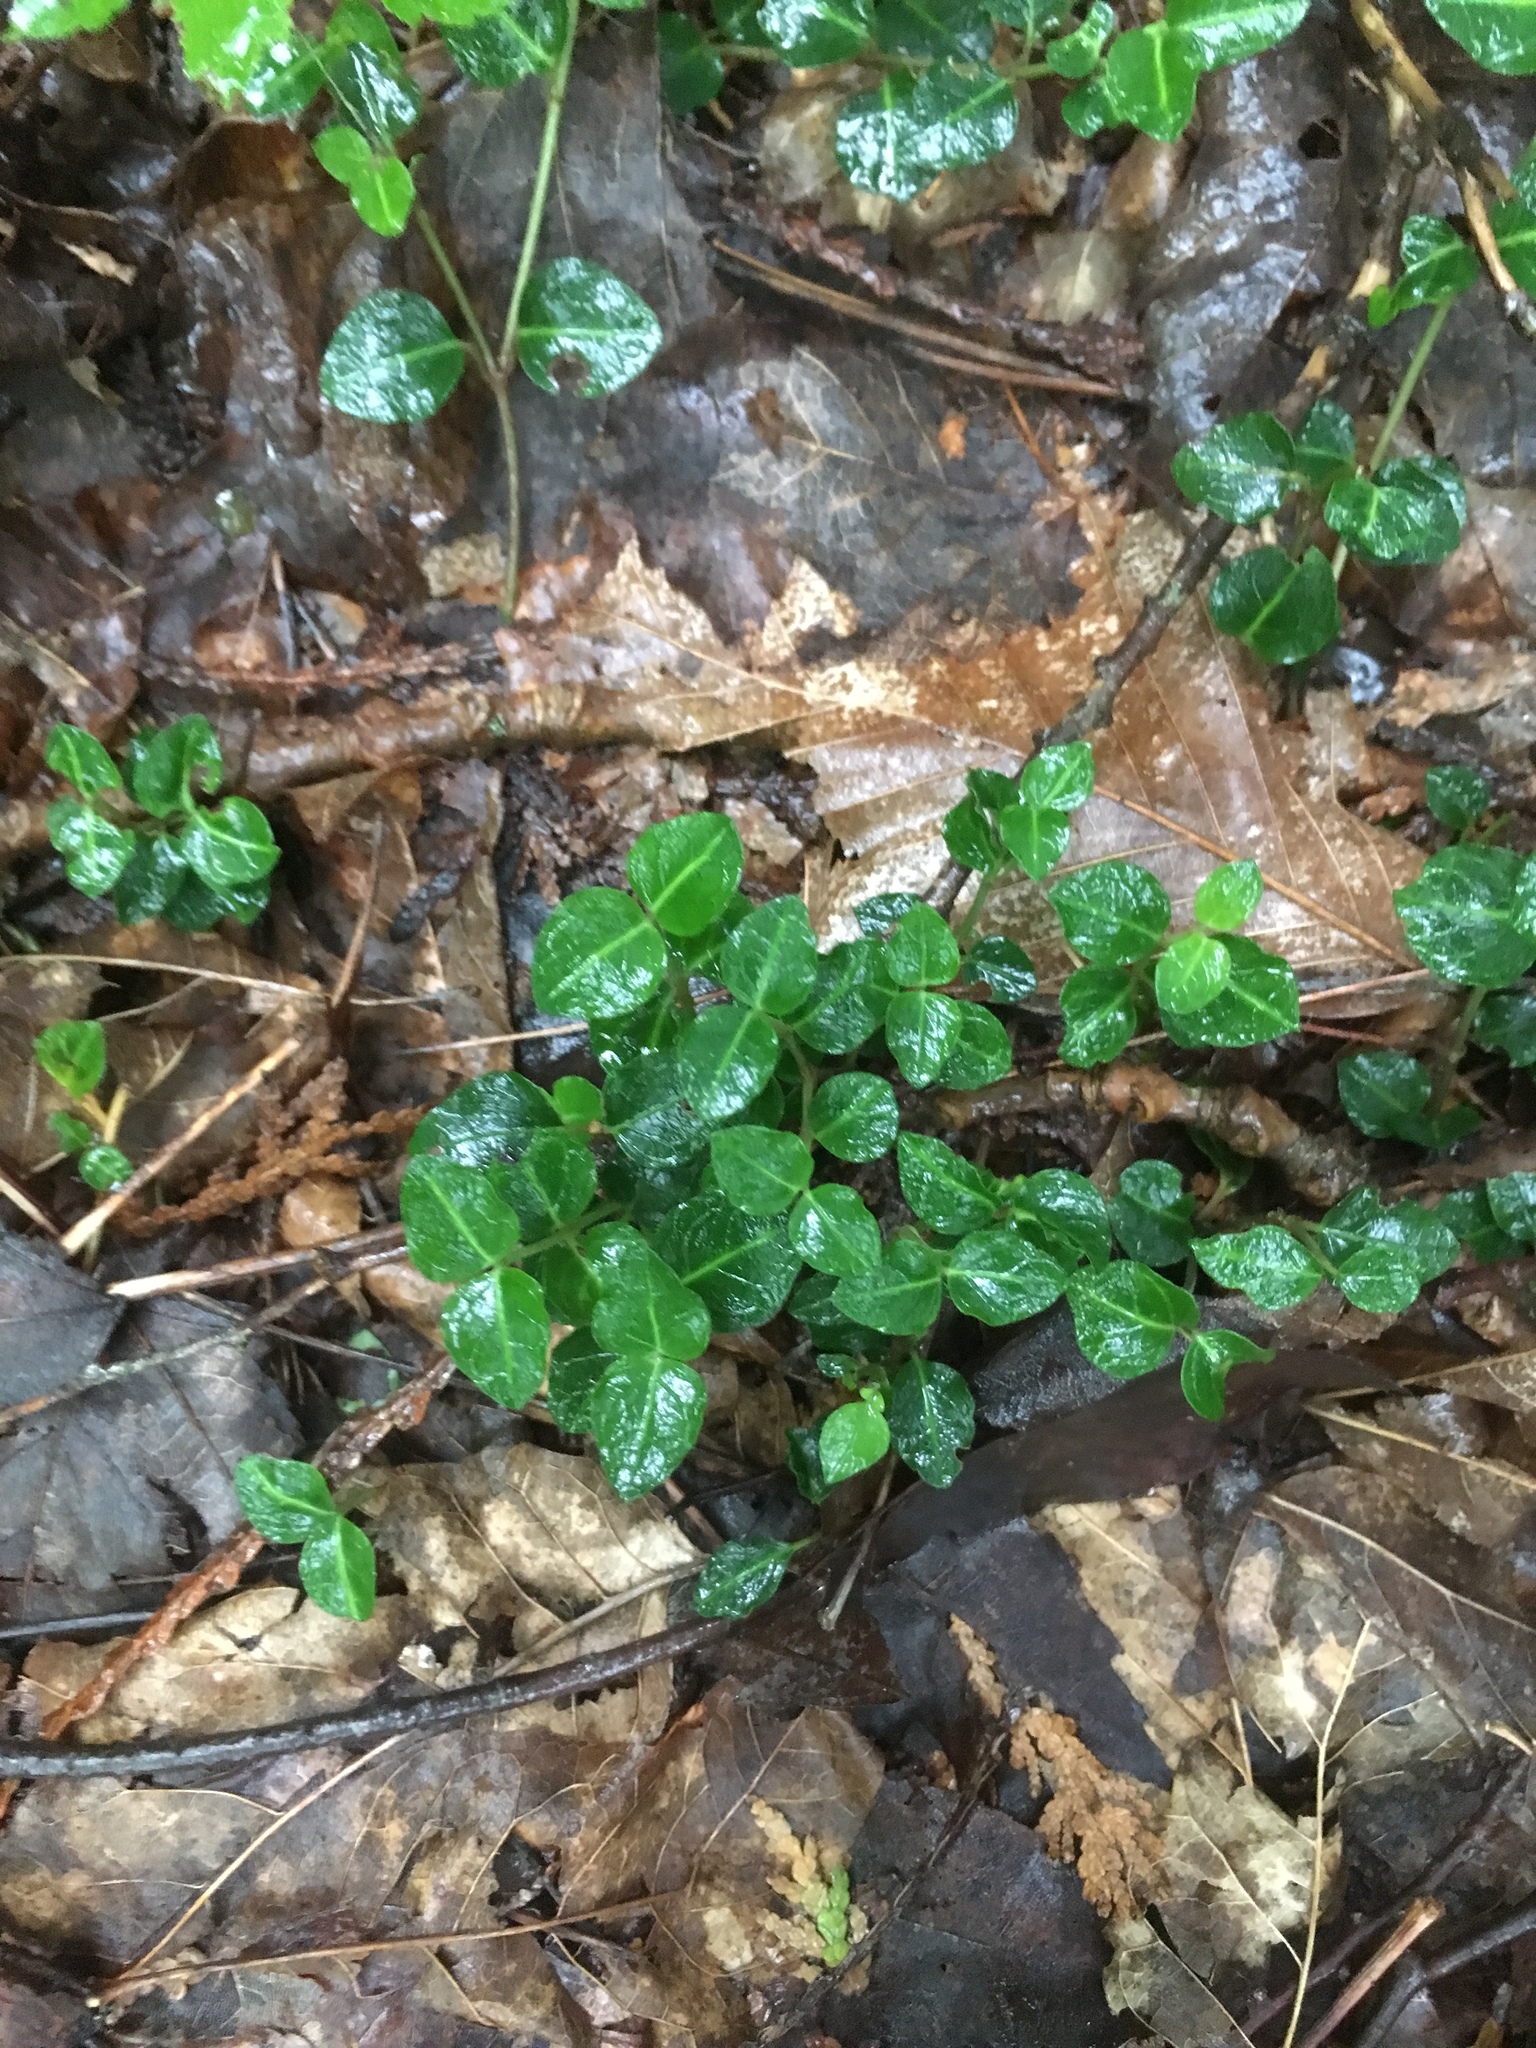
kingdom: Plantae
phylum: Tracheophyta
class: Magnoliopsida
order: Gentianales
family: Rubiaceae
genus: Mitchella
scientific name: Mitchella repens
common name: Partridge-berry
